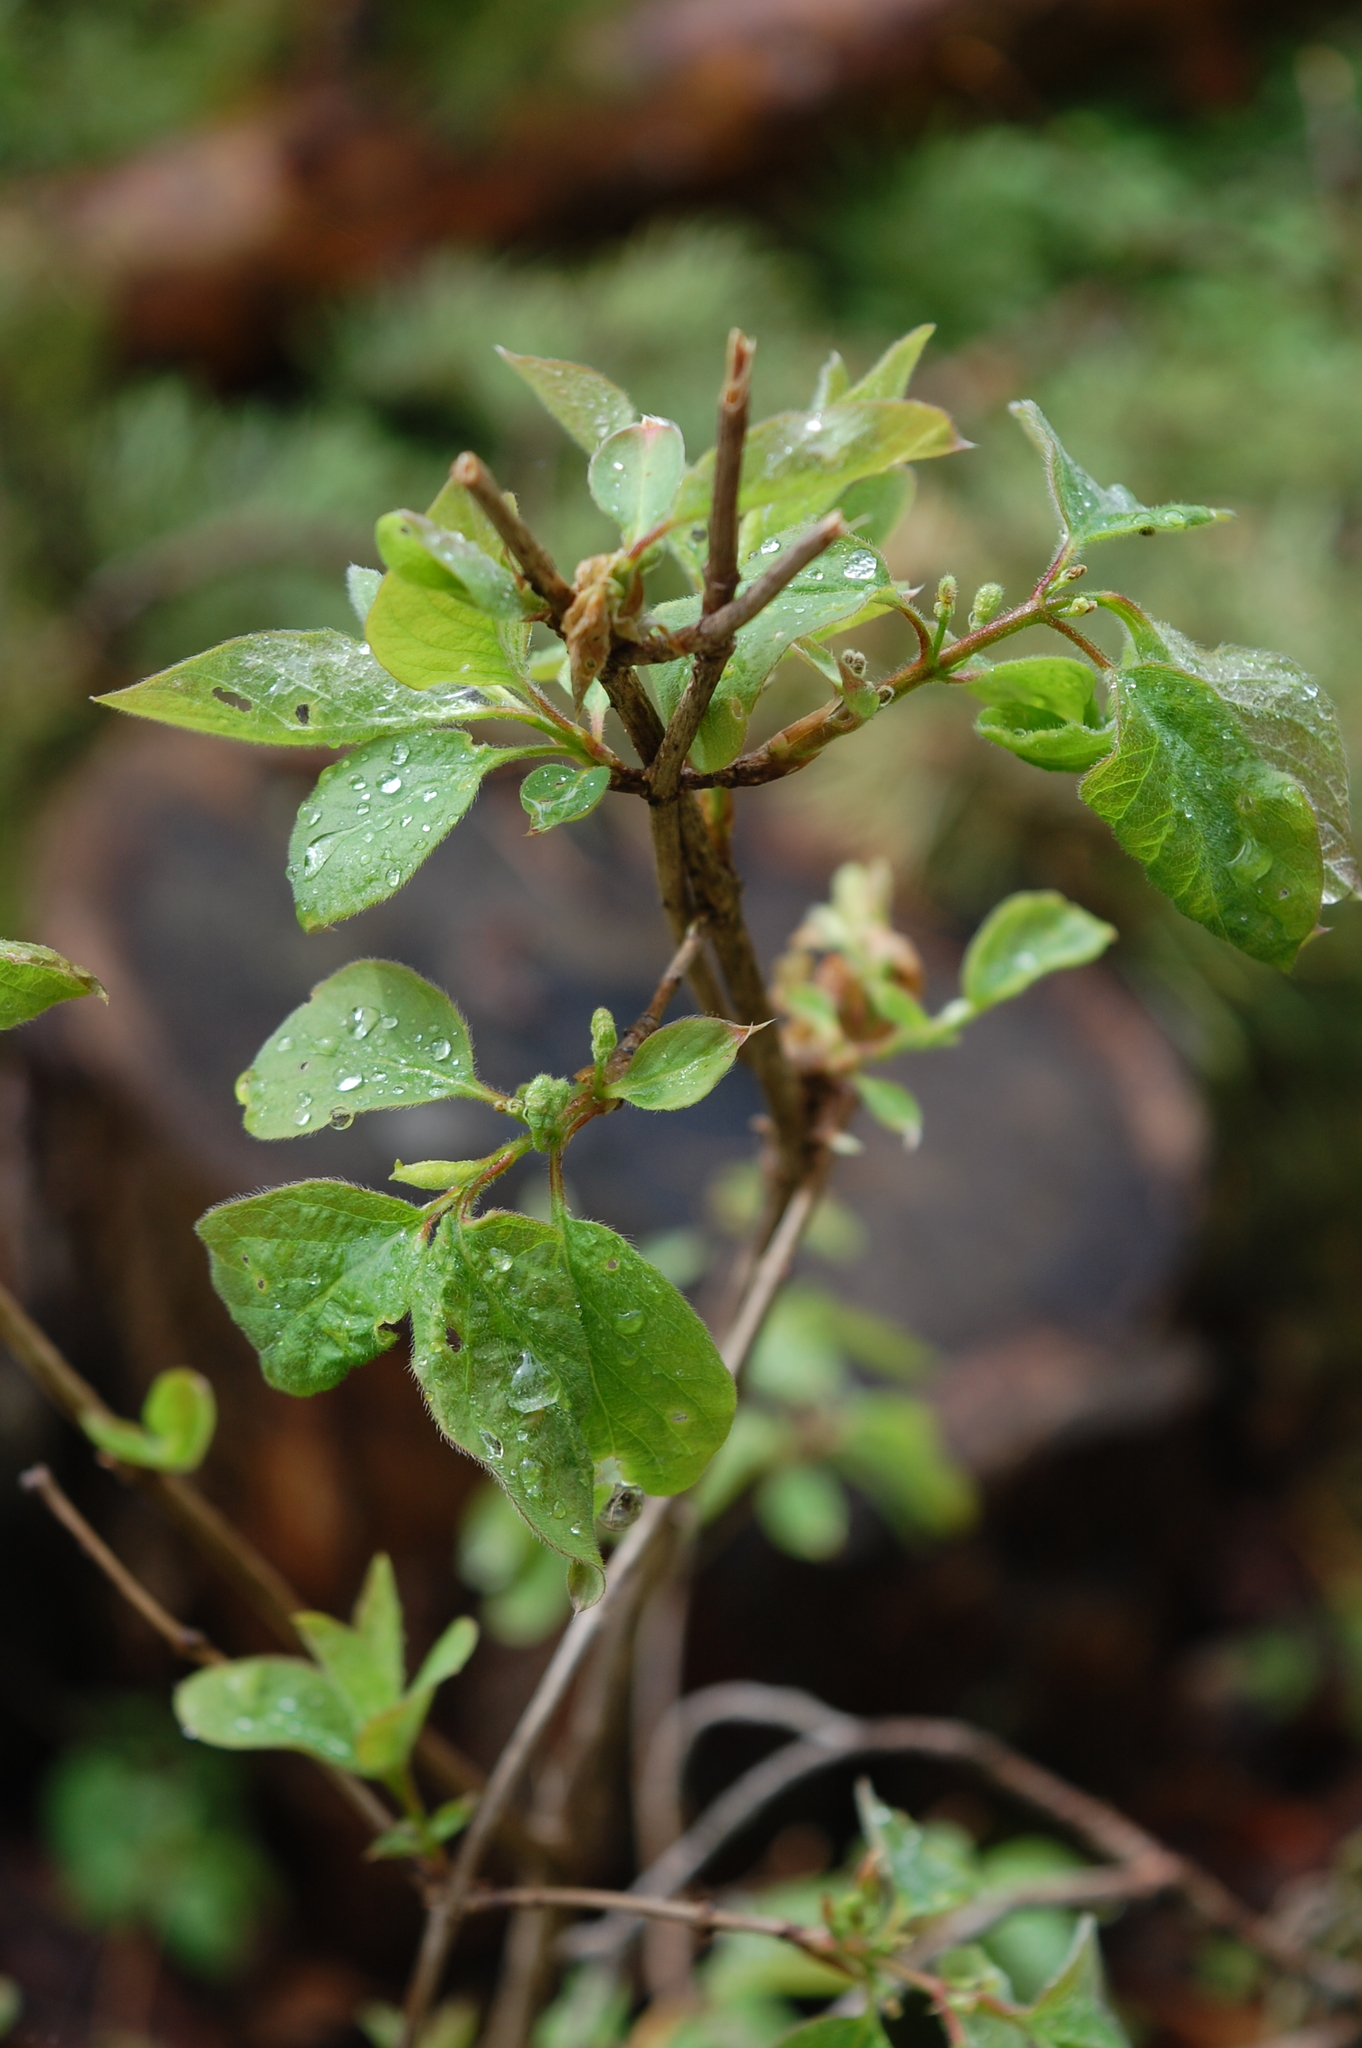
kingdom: Plantae
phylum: Tracheophyta
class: Magnoliopsida
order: Dipsacales
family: Caprifoliaceae
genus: Lonicera
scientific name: Lonicera xylosteum
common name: Fly honeysuckle
